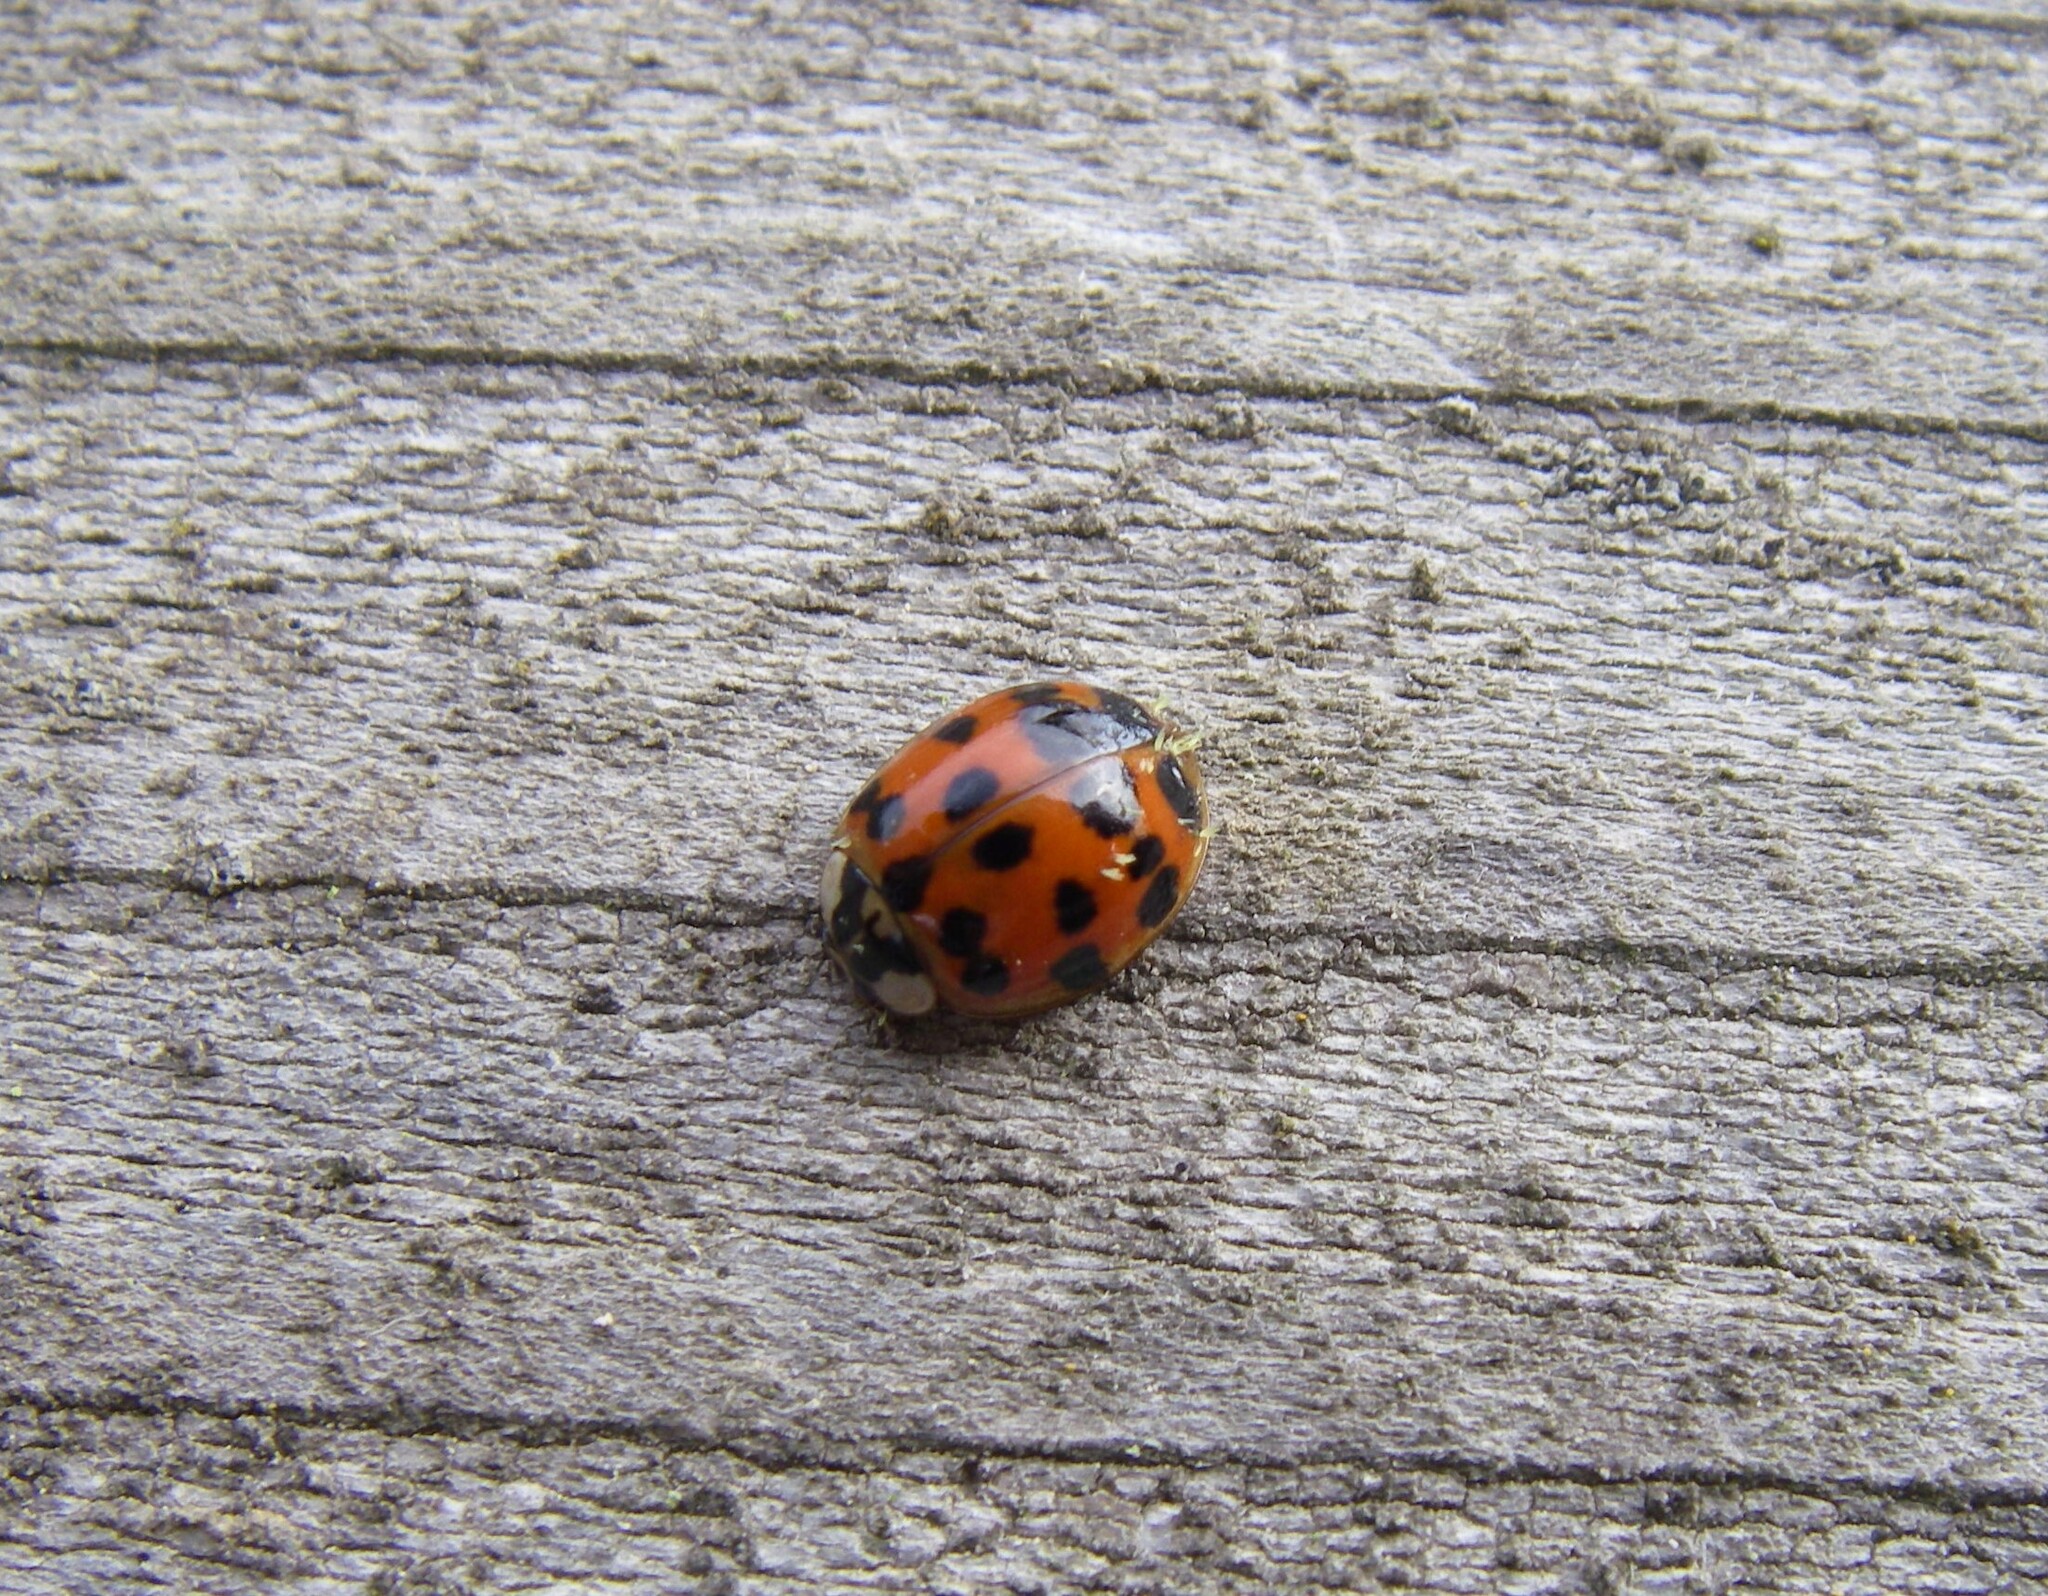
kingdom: Animalia
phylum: Arthropoda
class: Insecta
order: Coleoptera
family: Coccinellidae
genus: Harmonia
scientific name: Harmonia axyridis
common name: Harlequin ladybird
